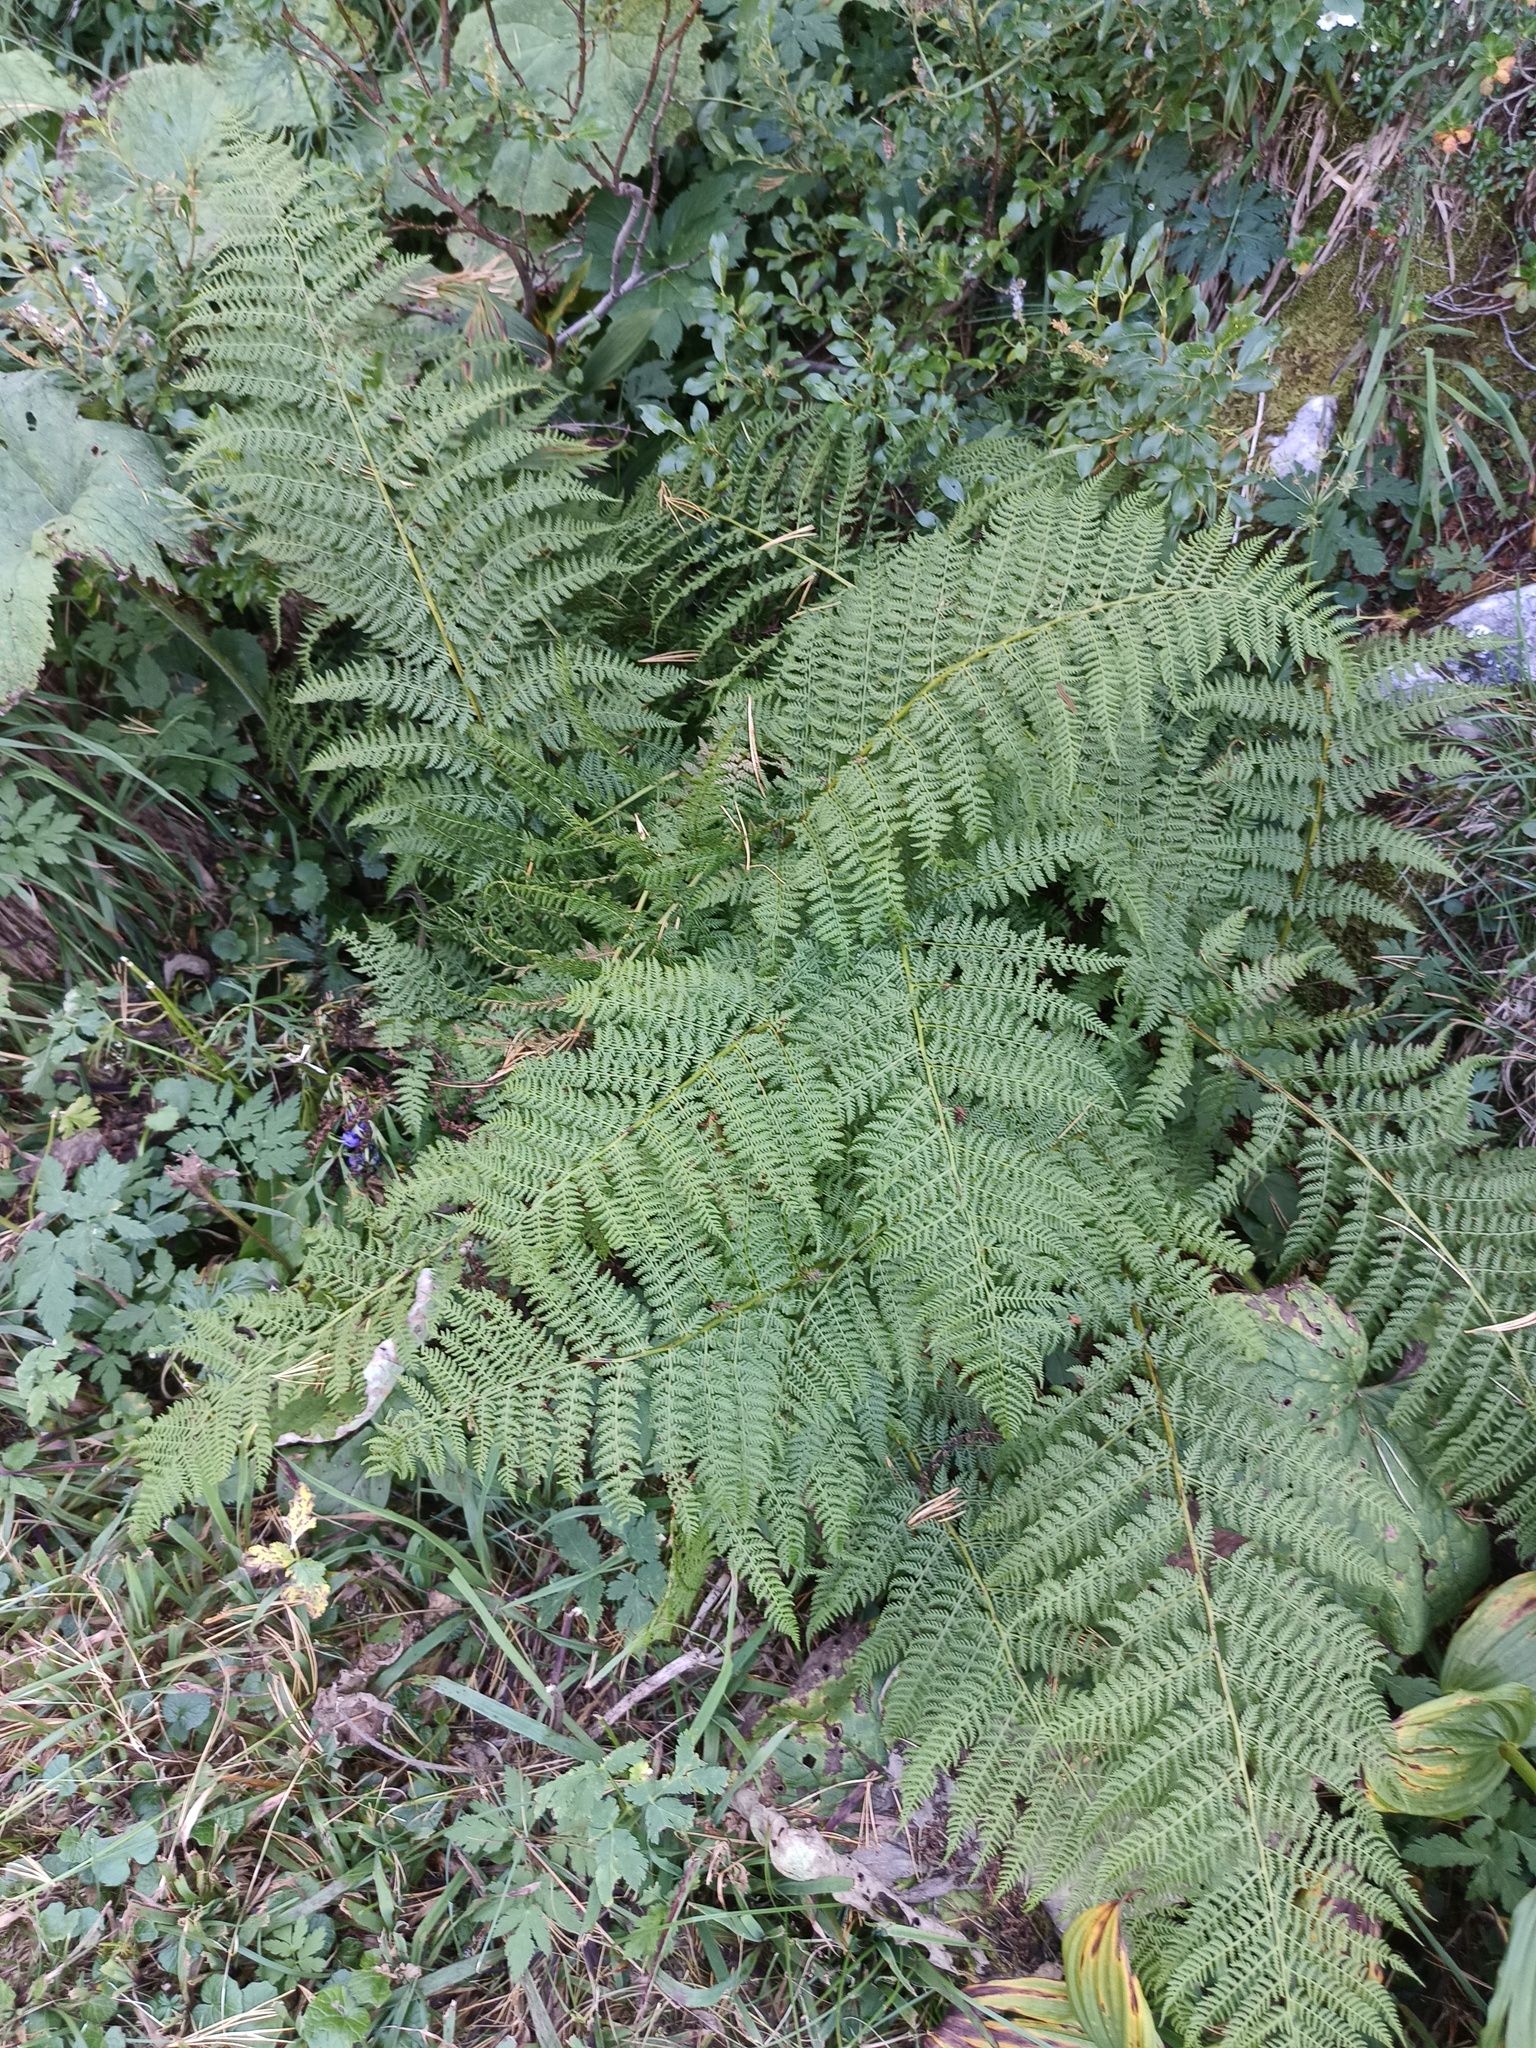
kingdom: Plantae
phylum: Tracheophyta
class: Polypodiopsida
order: Polypodiales
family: Athyriaceae
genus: Pseudathyrium
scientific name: Pseudathyrium alpestre
